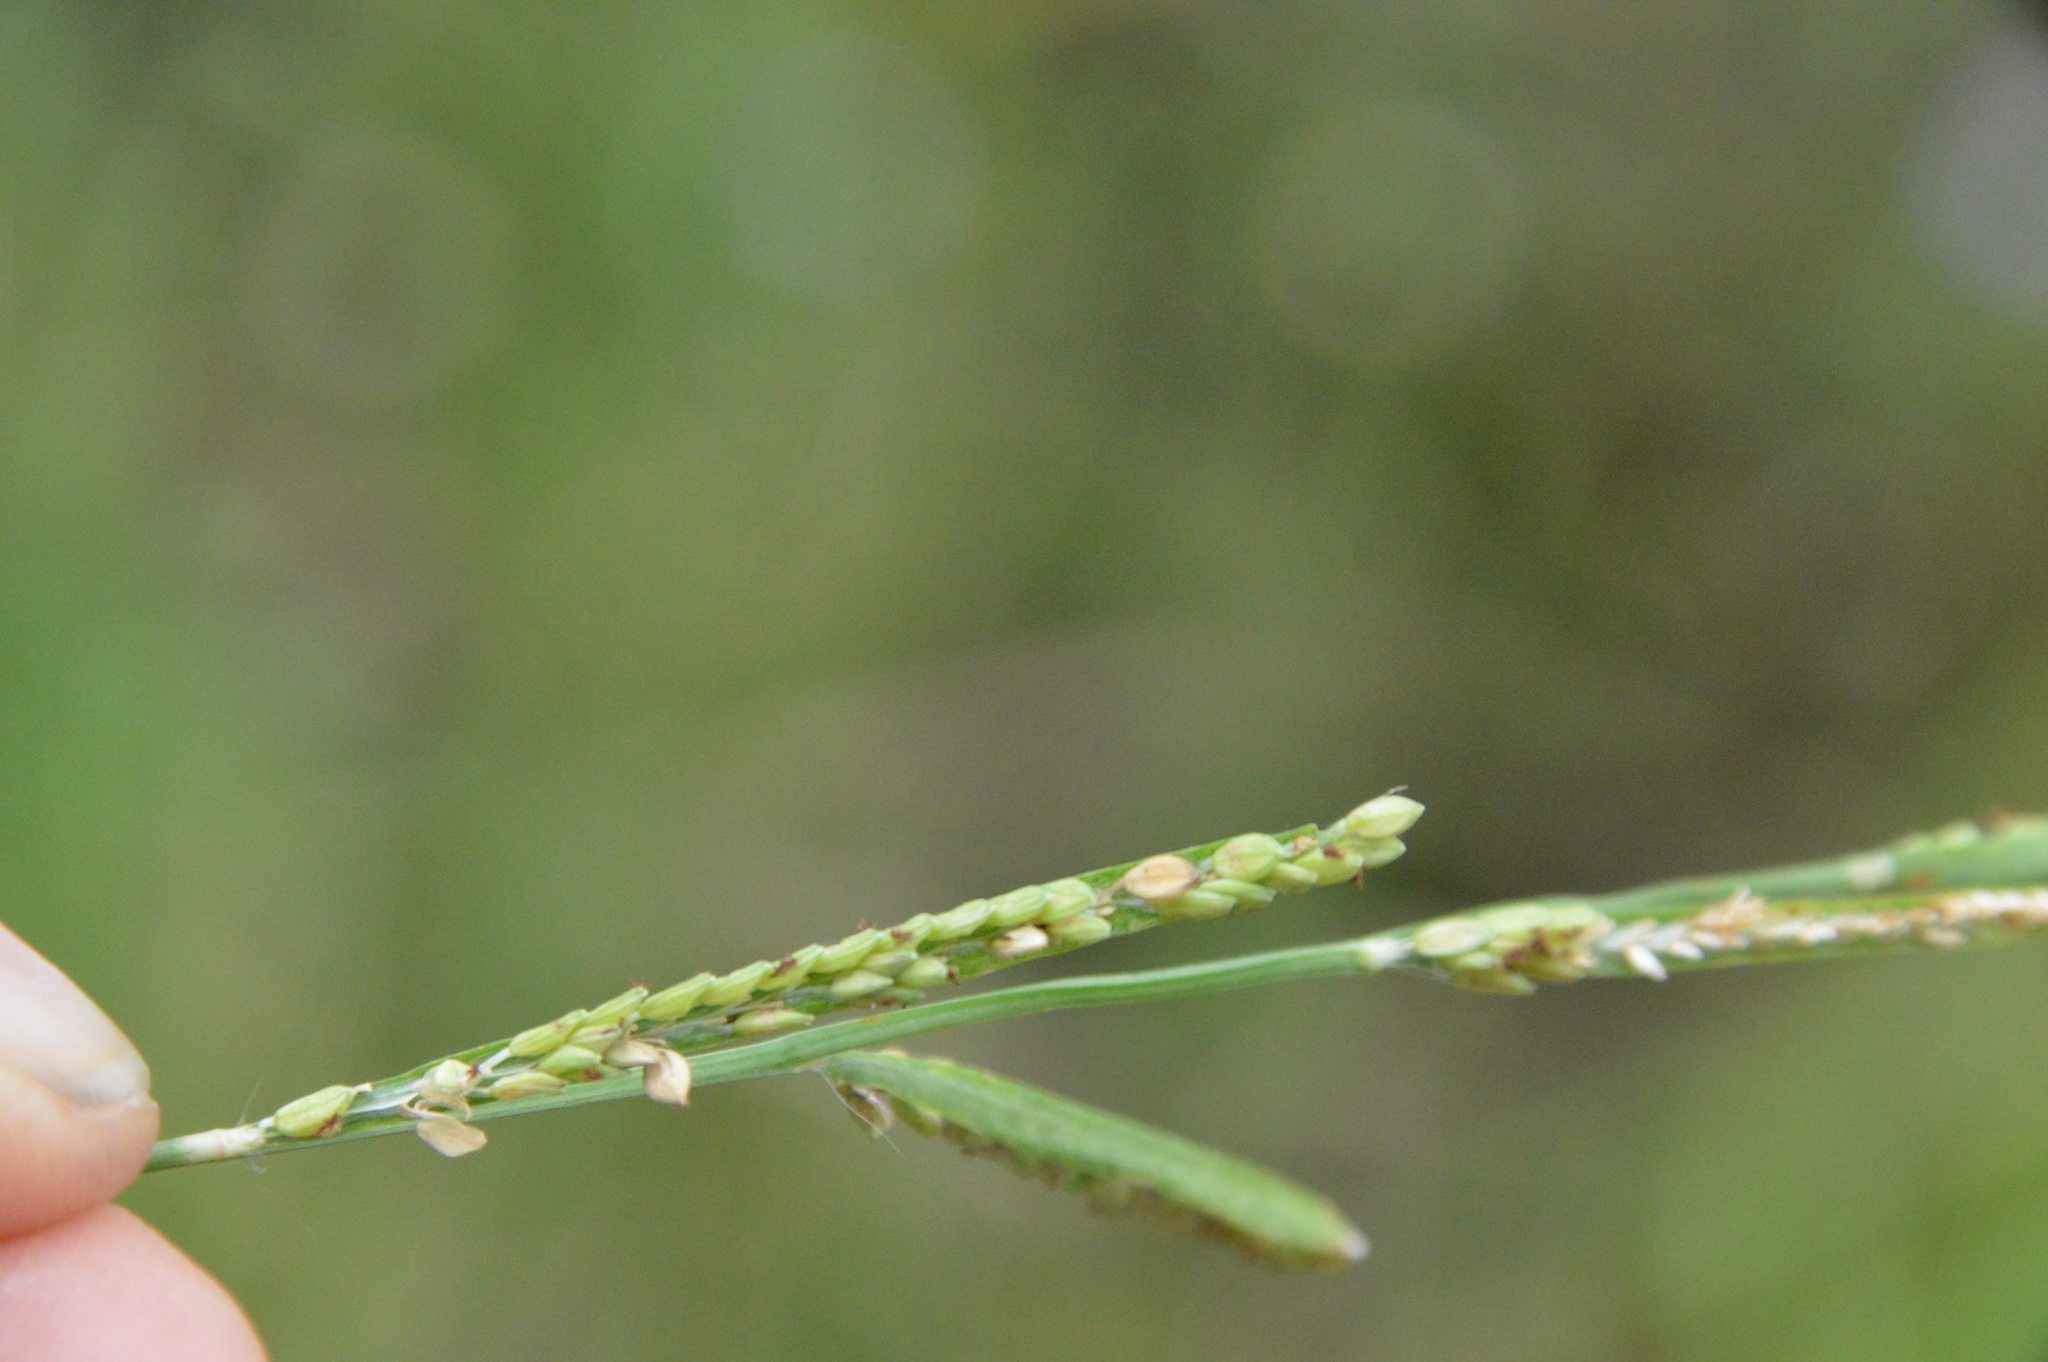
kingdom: Plantae
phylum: Tracheophyta
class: Liliopsida
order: Poales
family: Poaceae
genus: Paspalum
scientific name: Paspalum denticulatum
